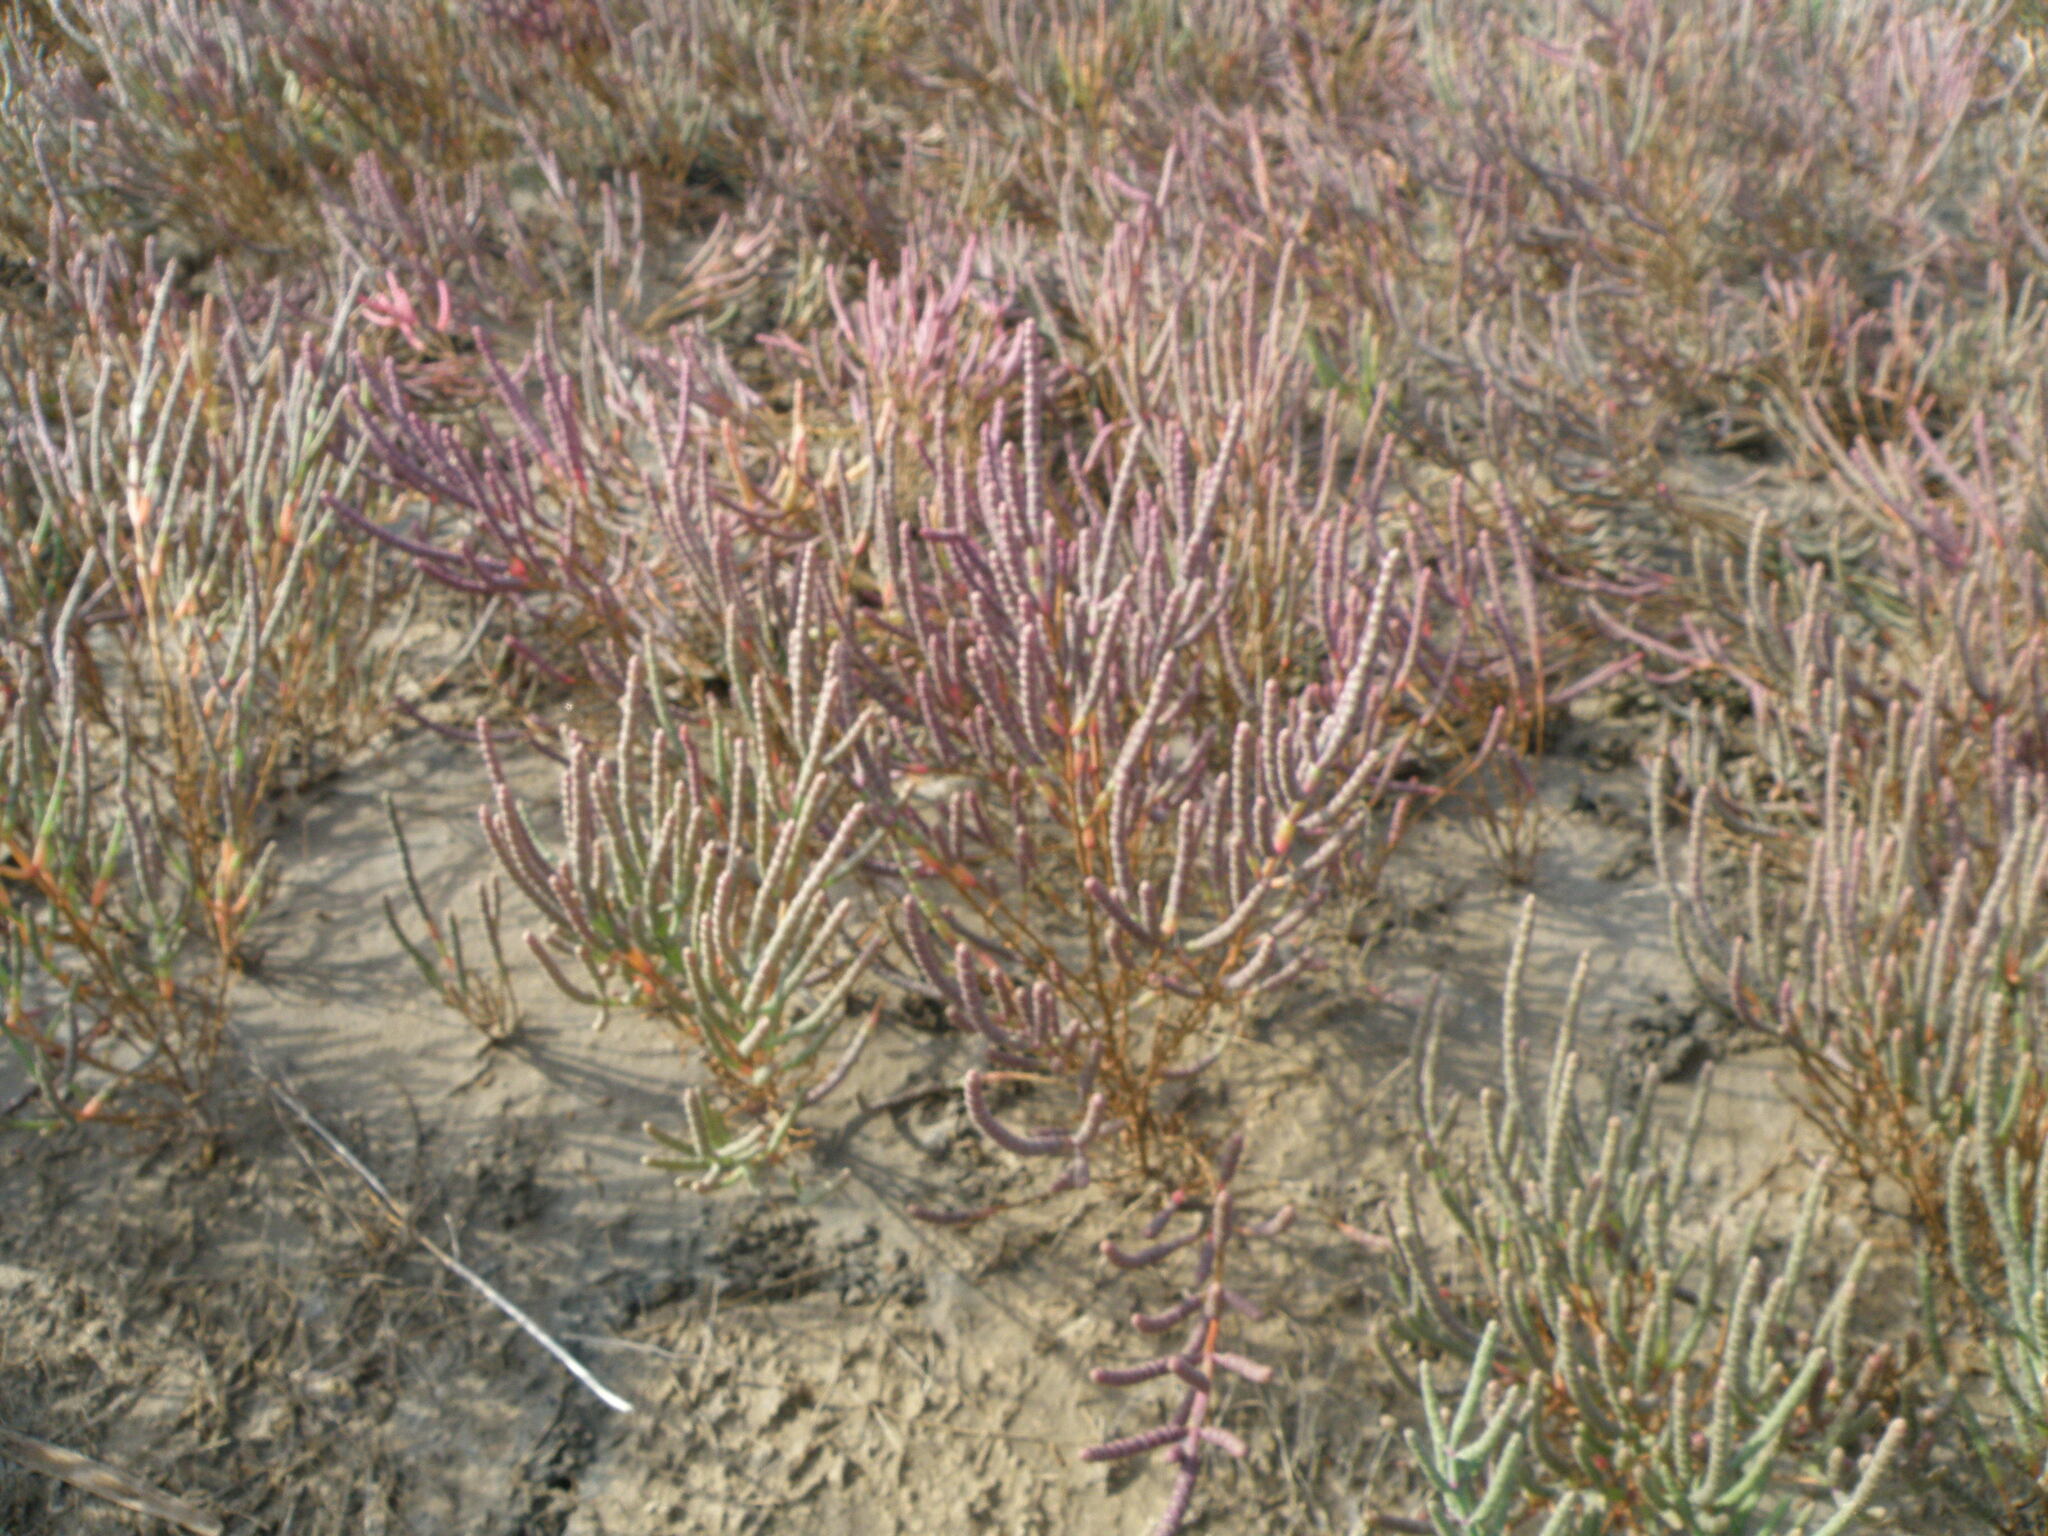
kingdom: Plantae
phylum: Tracheophyta
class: Magnoliopsida
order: Caryophyllales
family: Amaranthaceae
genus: Salicornia
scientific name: Salicornia perennans
